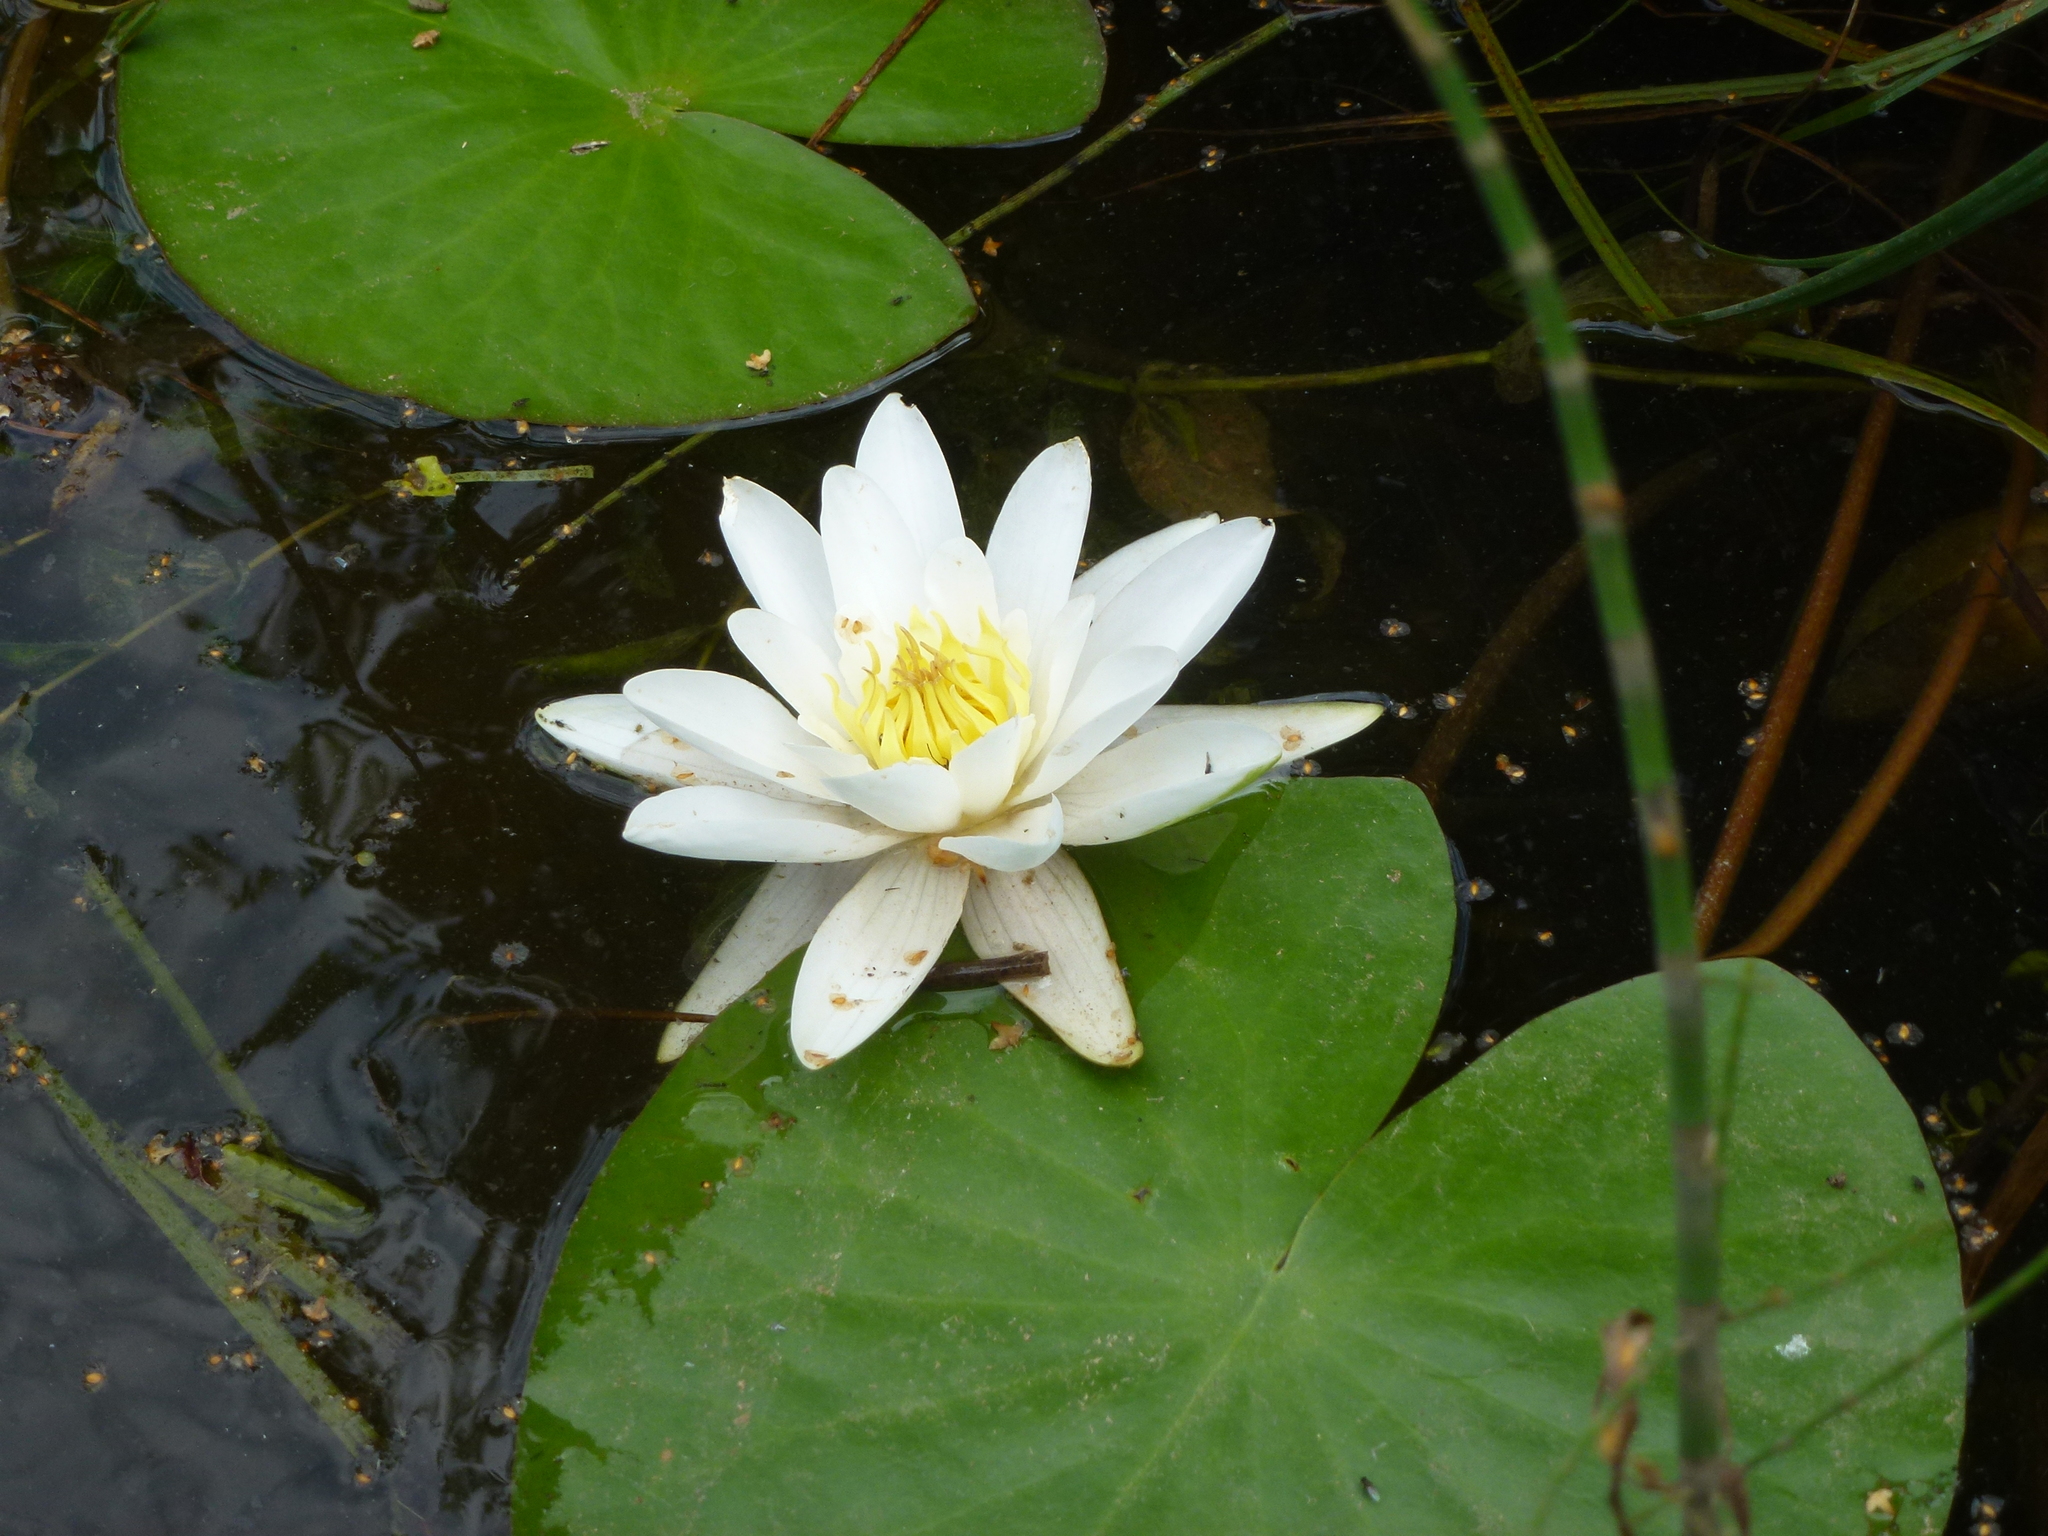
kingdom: Plantae
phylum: Tracheophyta
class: Magnoliopsida
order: Nymphaeales
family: Nymphaeaceae
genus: Nymphaea
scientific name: Nymphaea candida
